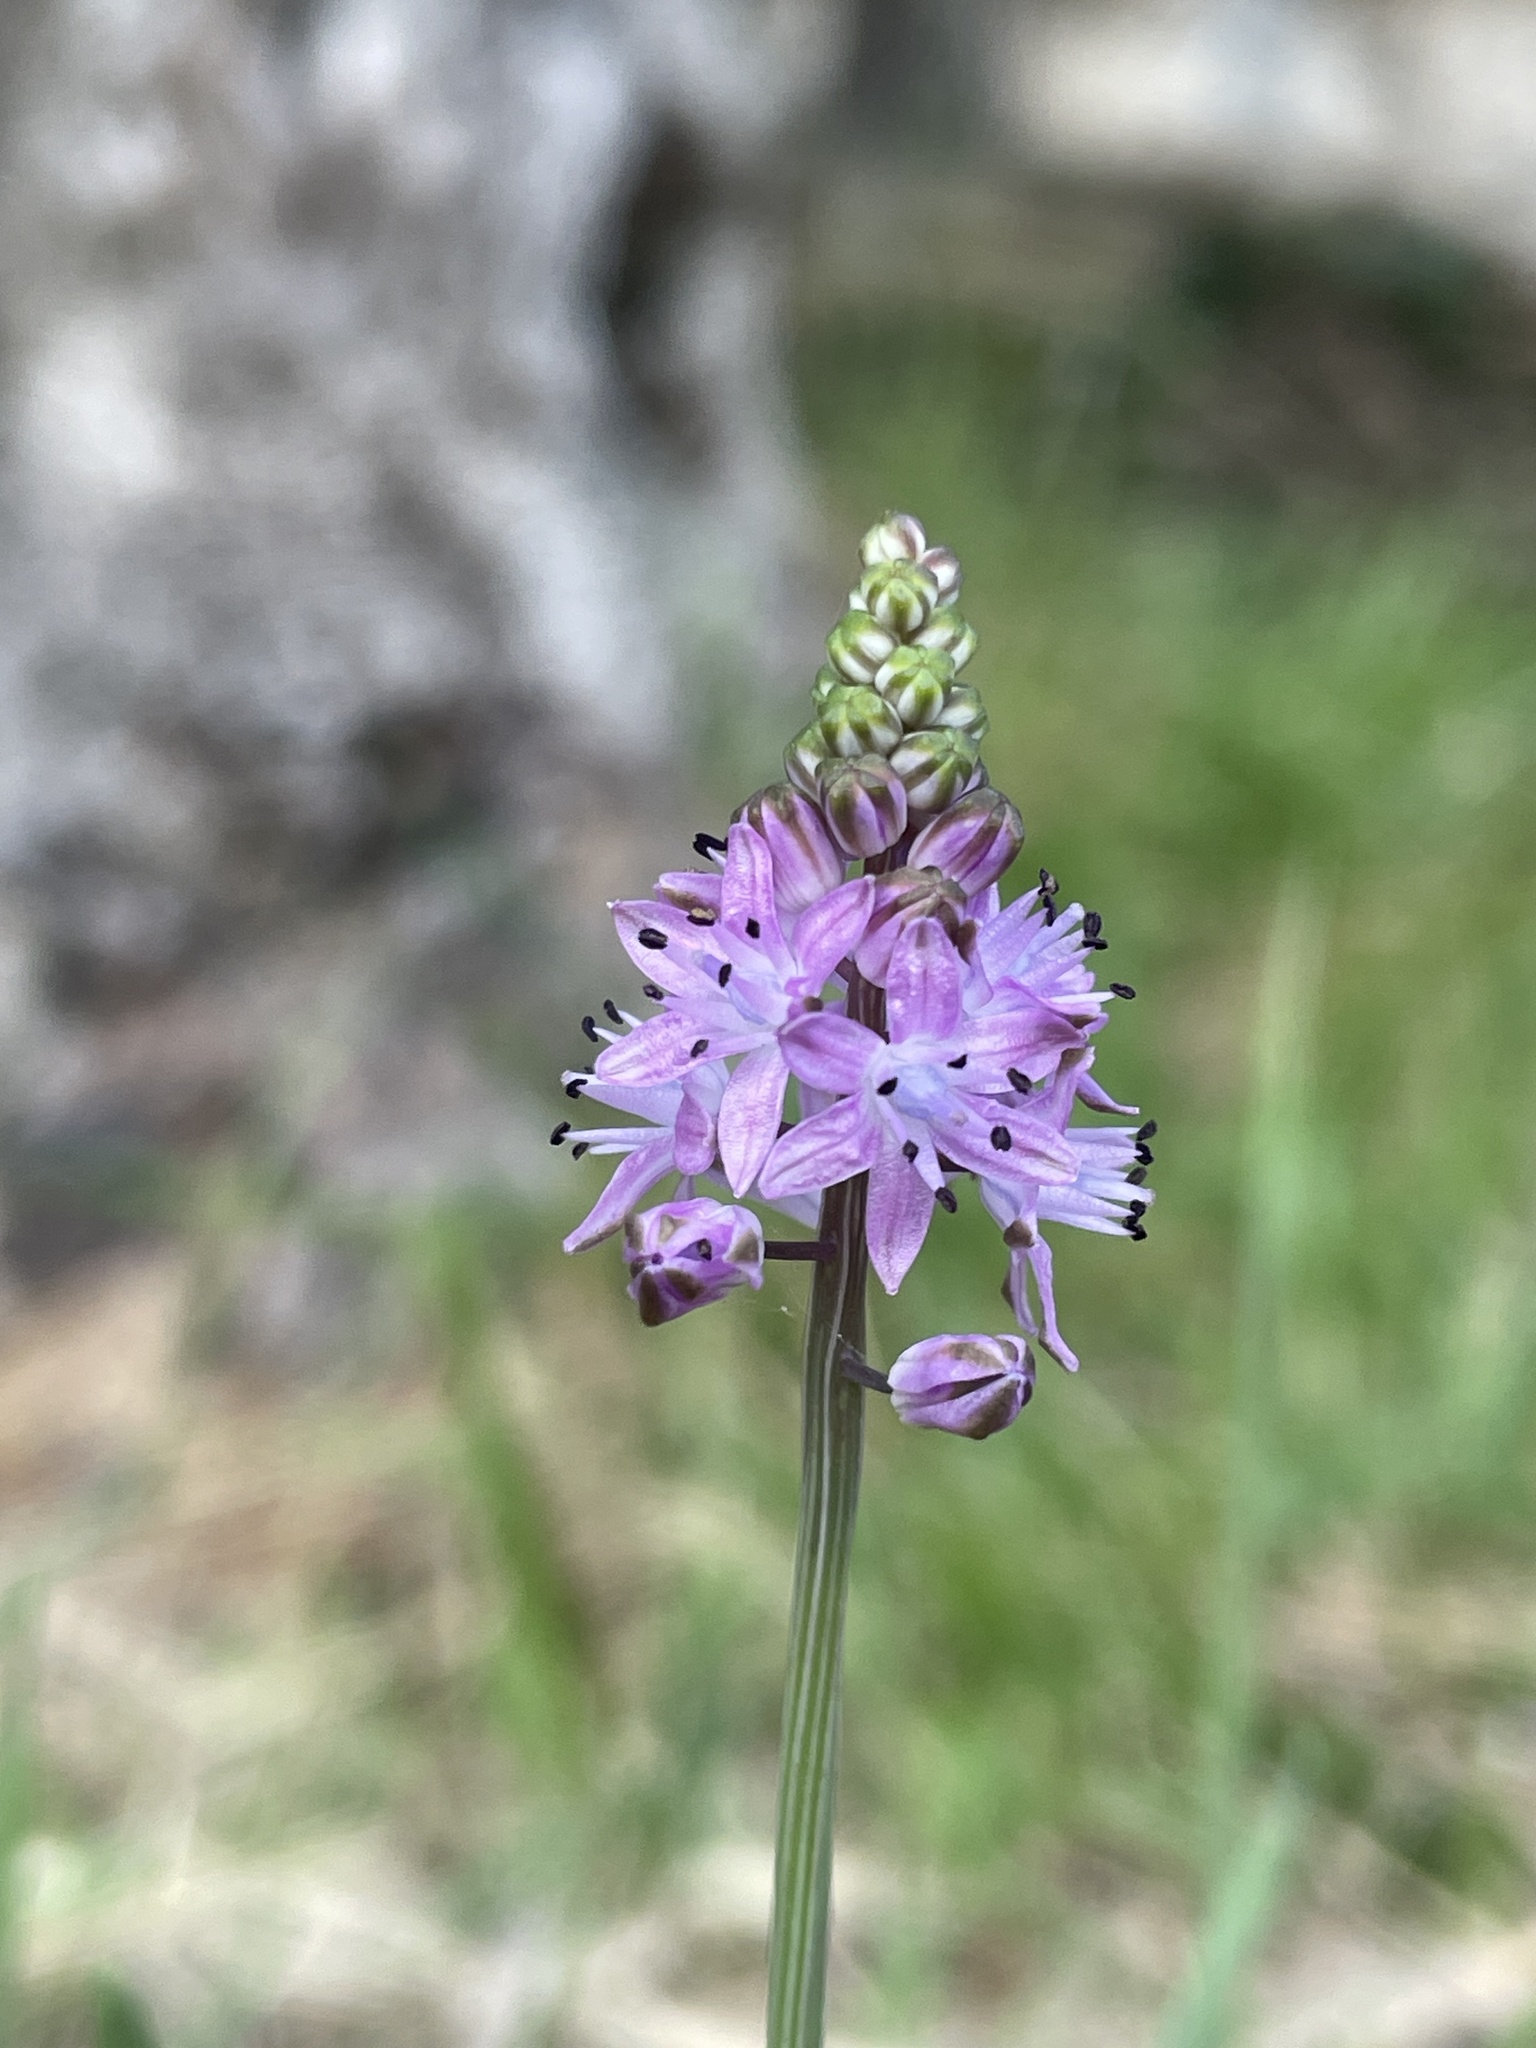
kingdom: Plantae
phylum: Tracheophyta
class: Liliopsida
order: Asparagales
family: Asparagaceae
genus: Prospero
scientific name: Prospero autumnale
